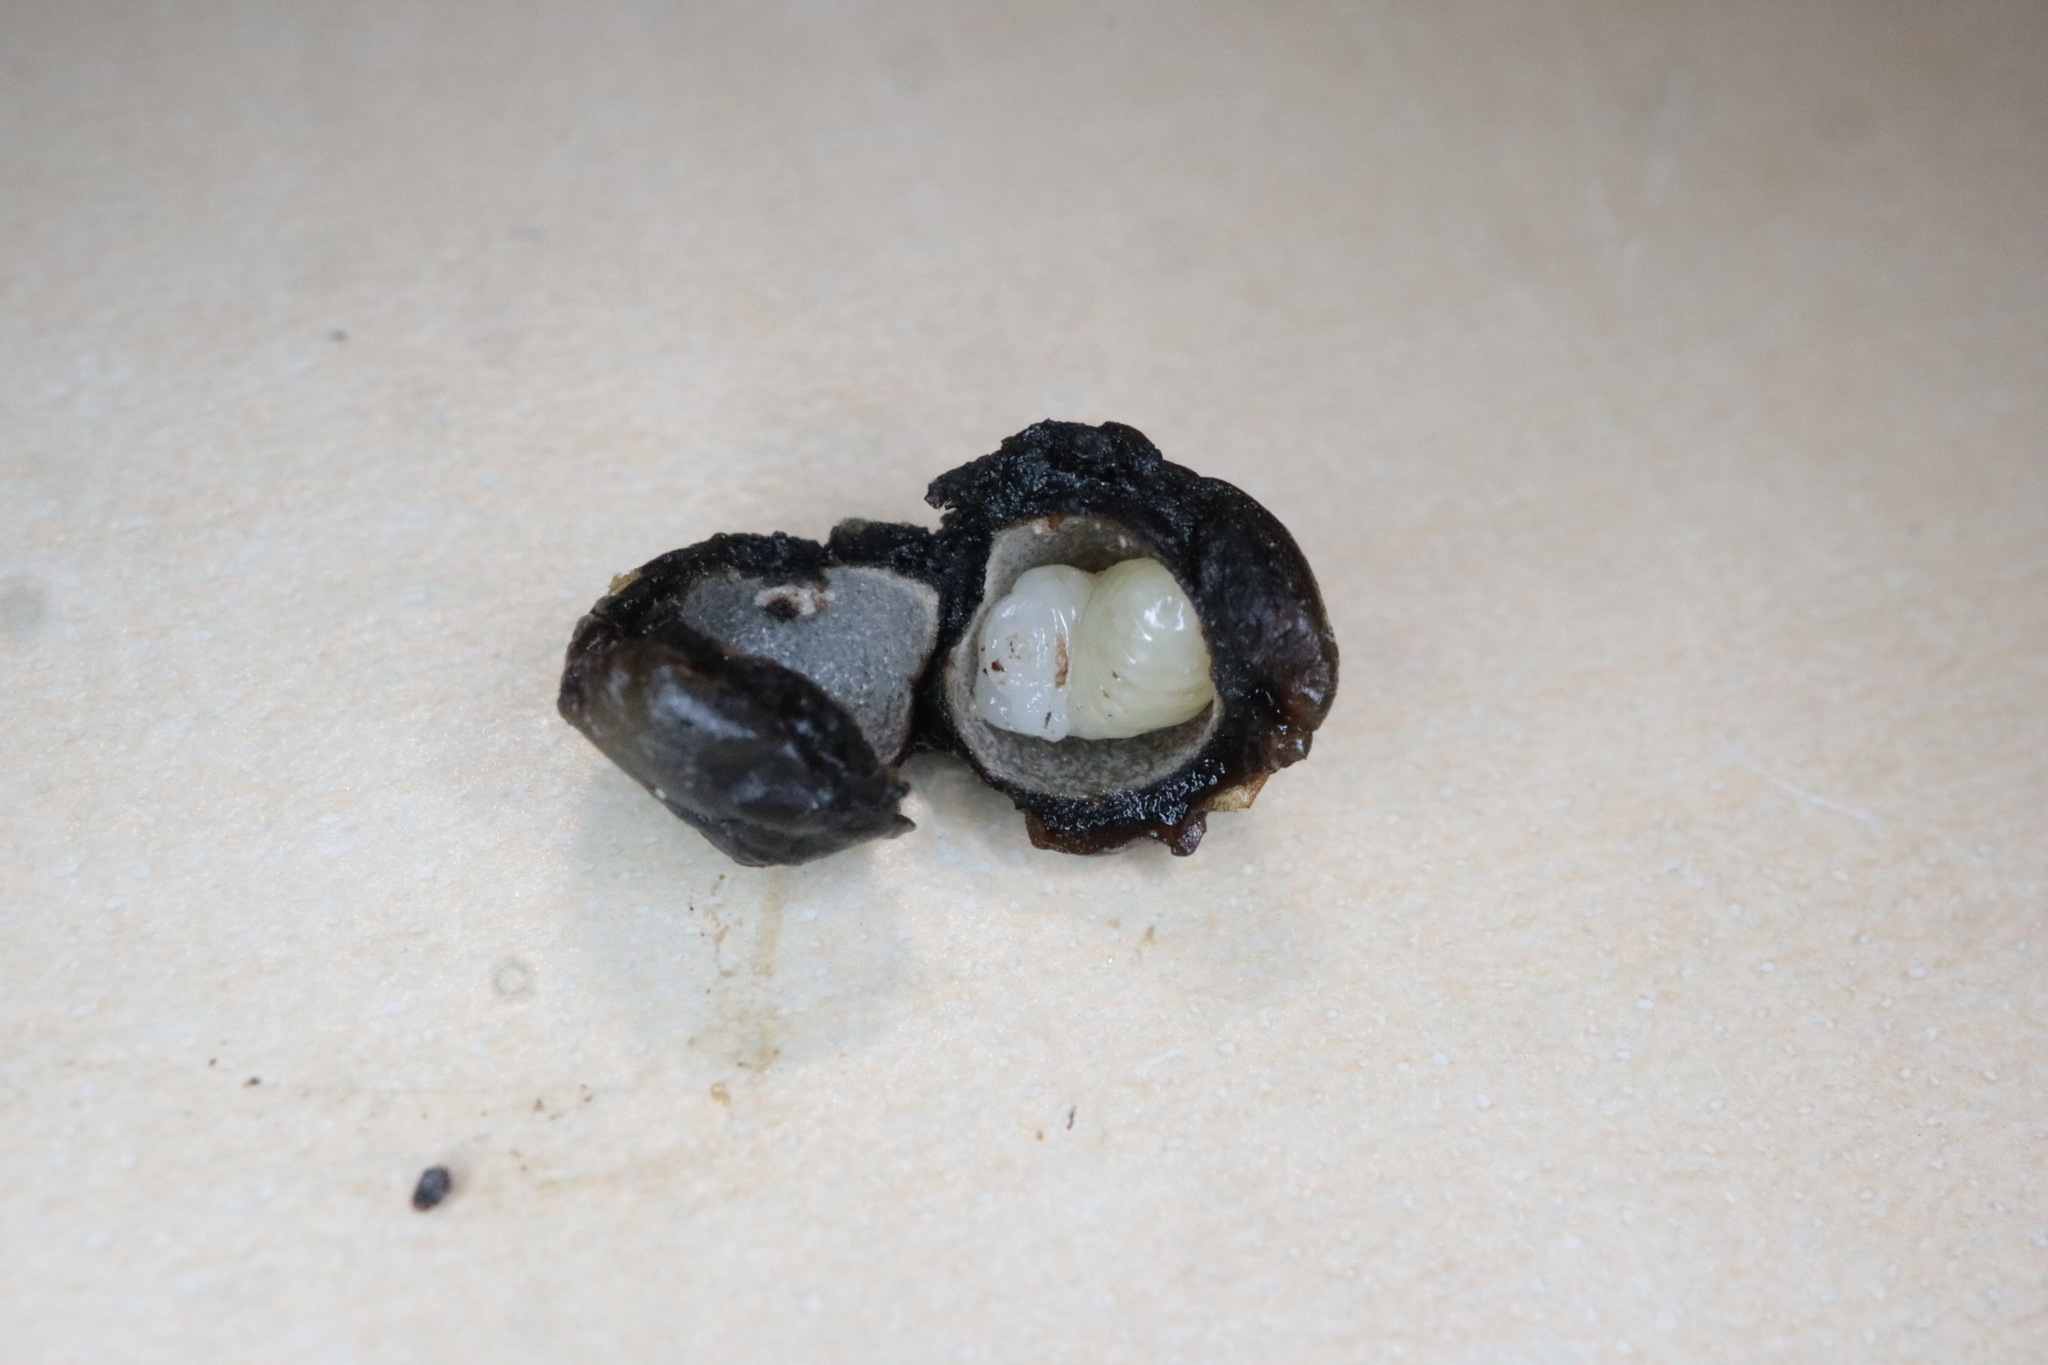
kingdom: Animalia
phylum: Arthropoda
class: Insecta
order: Hymenoptera
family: Cynipidae
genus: Callirhytis
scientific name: Callirhytis
